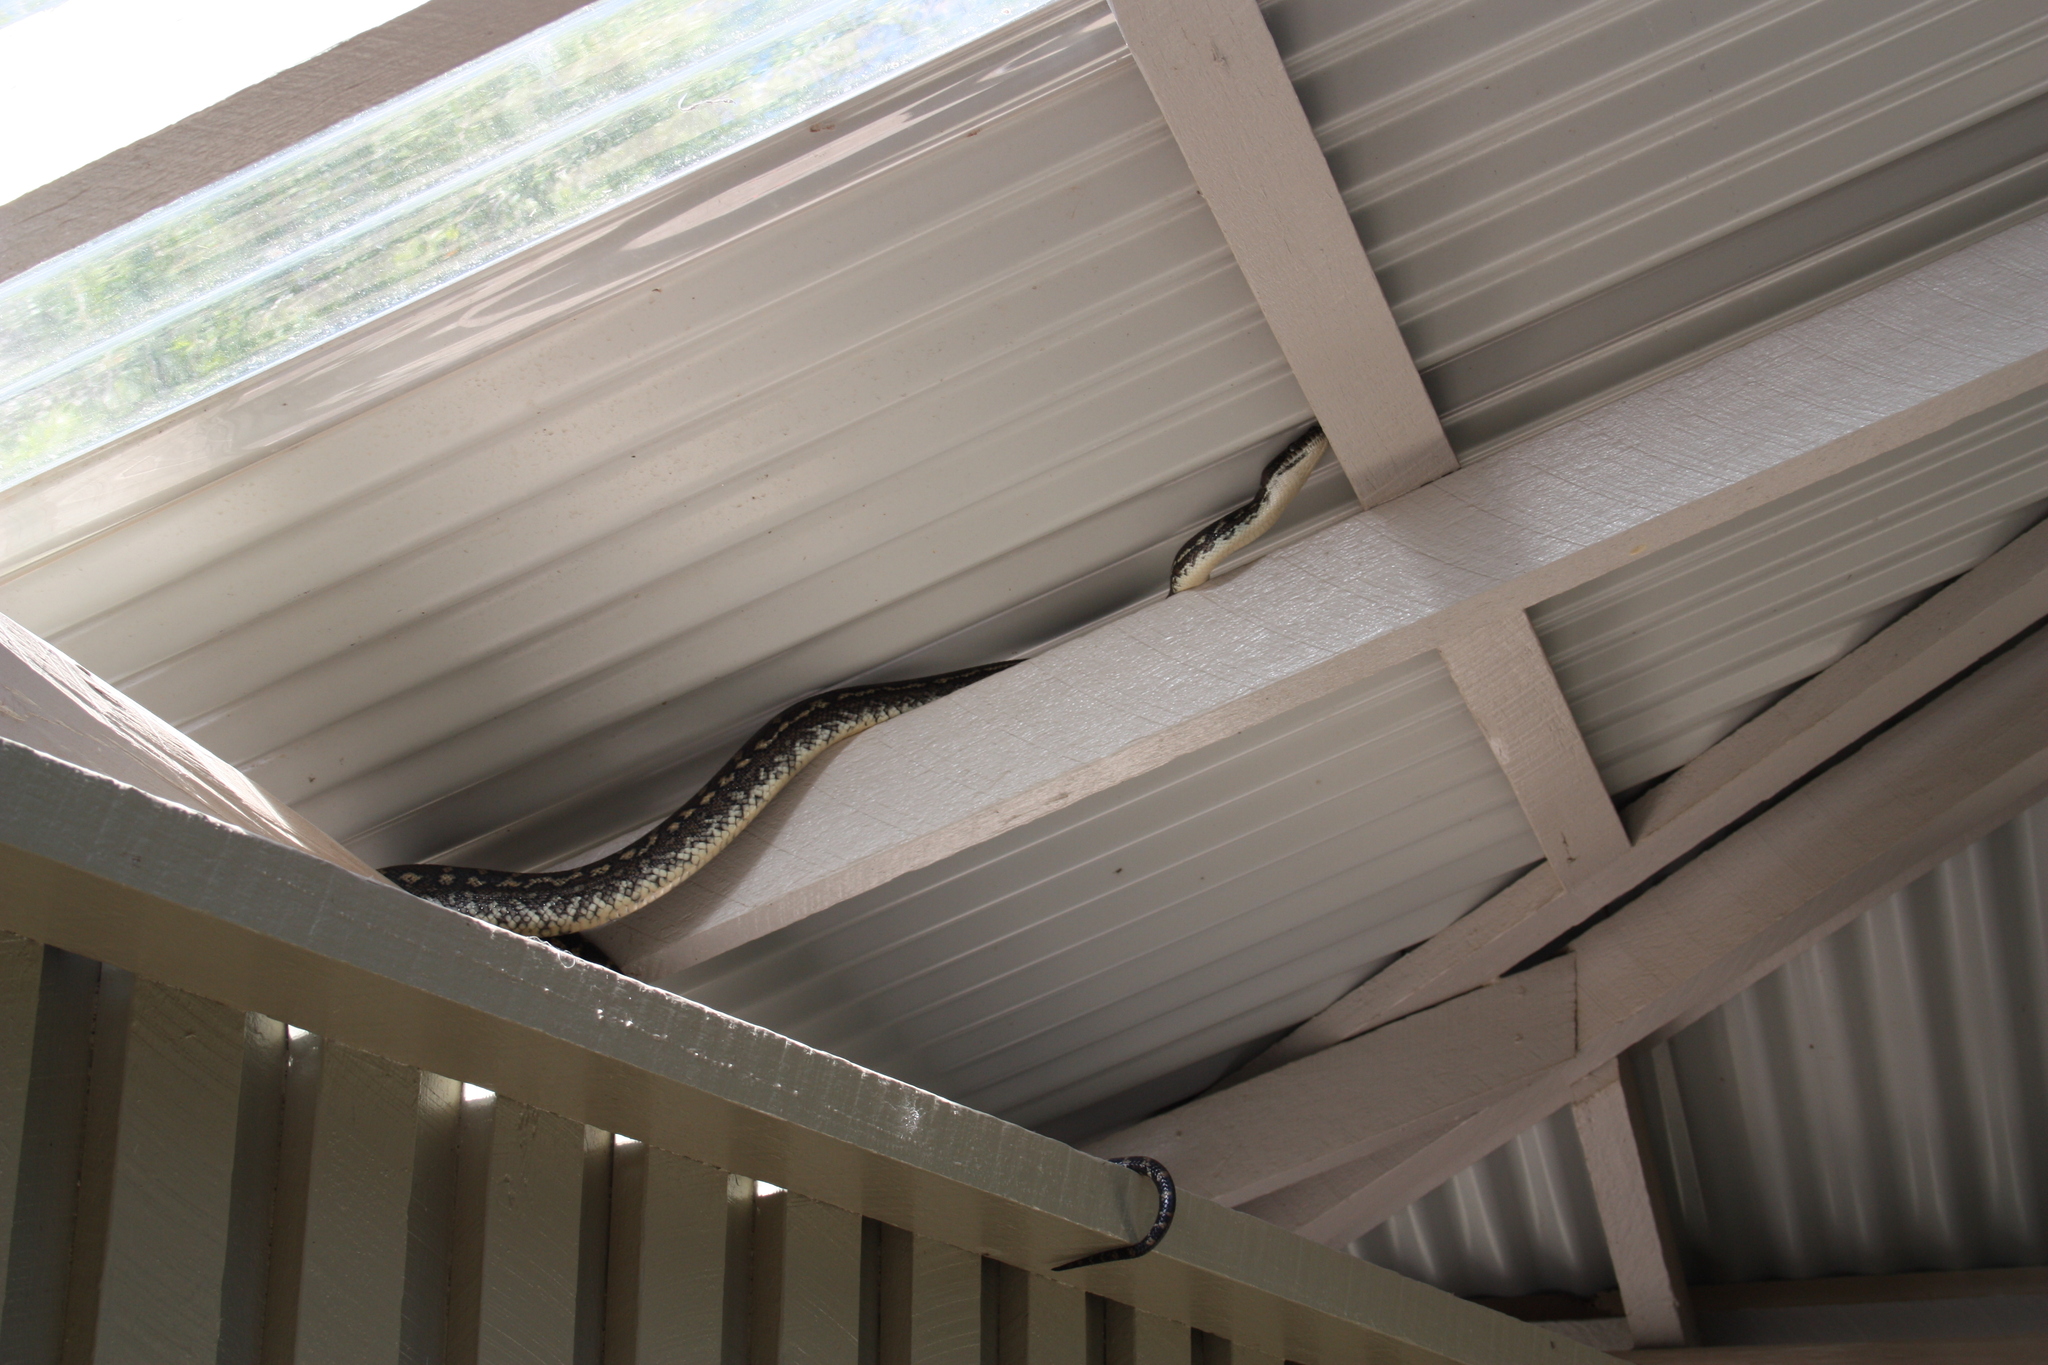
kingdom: Animalia
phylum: Chordata
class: Squamata
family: Pythonidae
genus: Morelia
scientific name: Morelia spilota
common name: Carpet python
